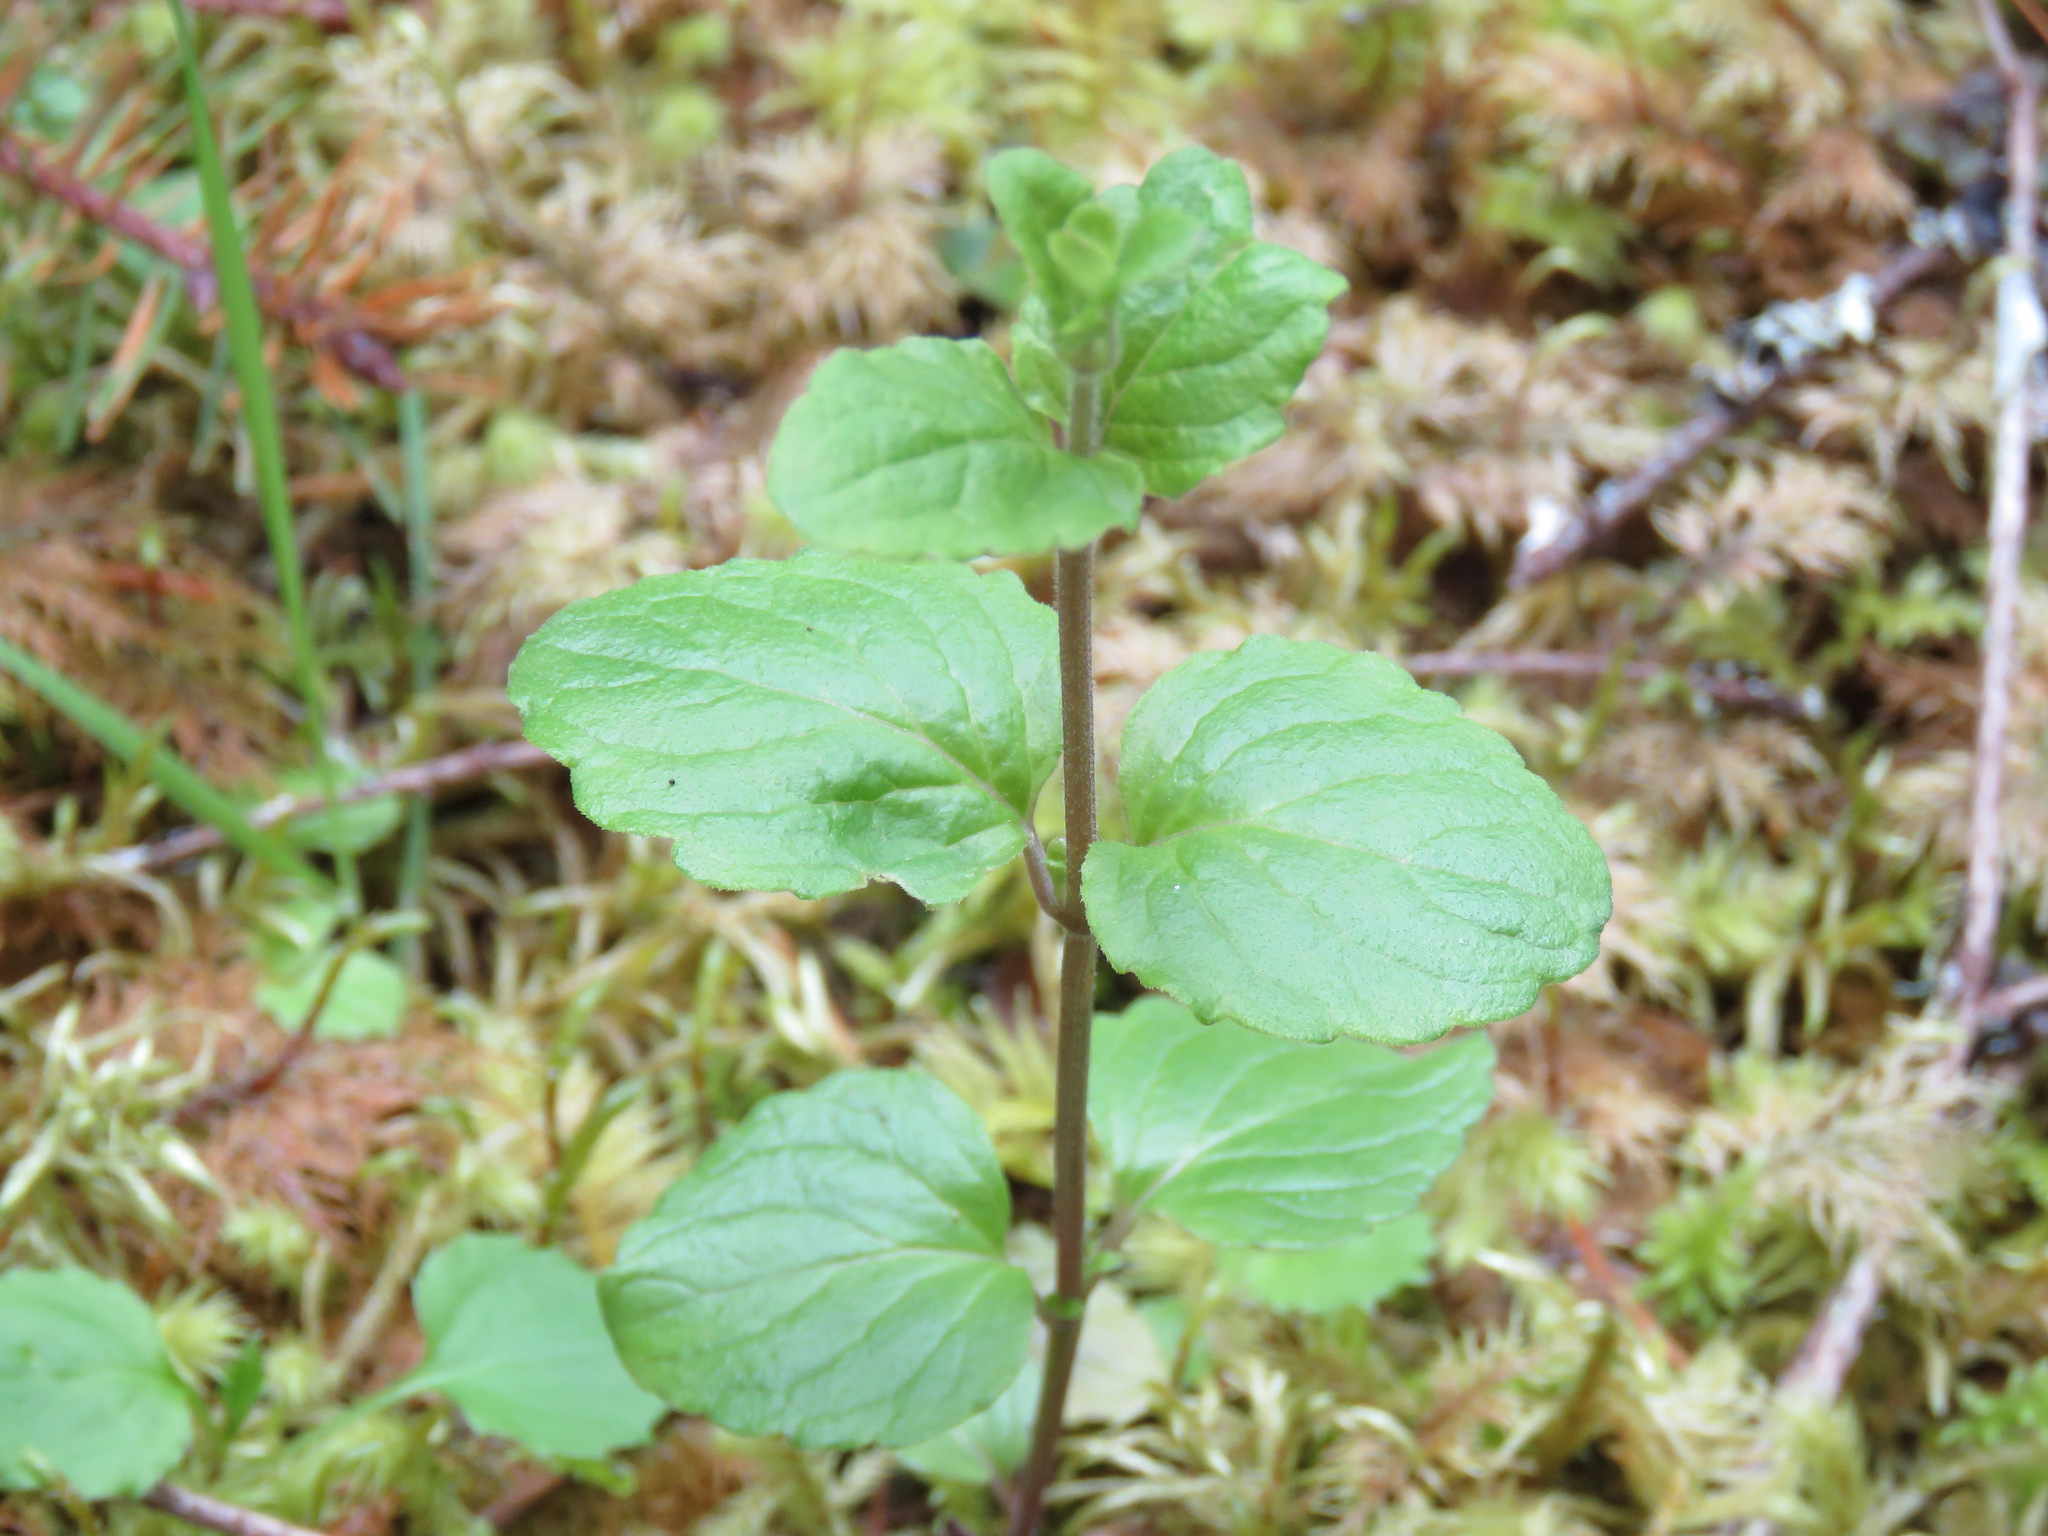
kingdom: Plantae
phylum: Tracheophyta
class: Magnoliopsida
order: Lamiales
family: Lamiaceae
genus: Micromeria
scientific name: Micromeria douglasii
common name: Yerba buena
